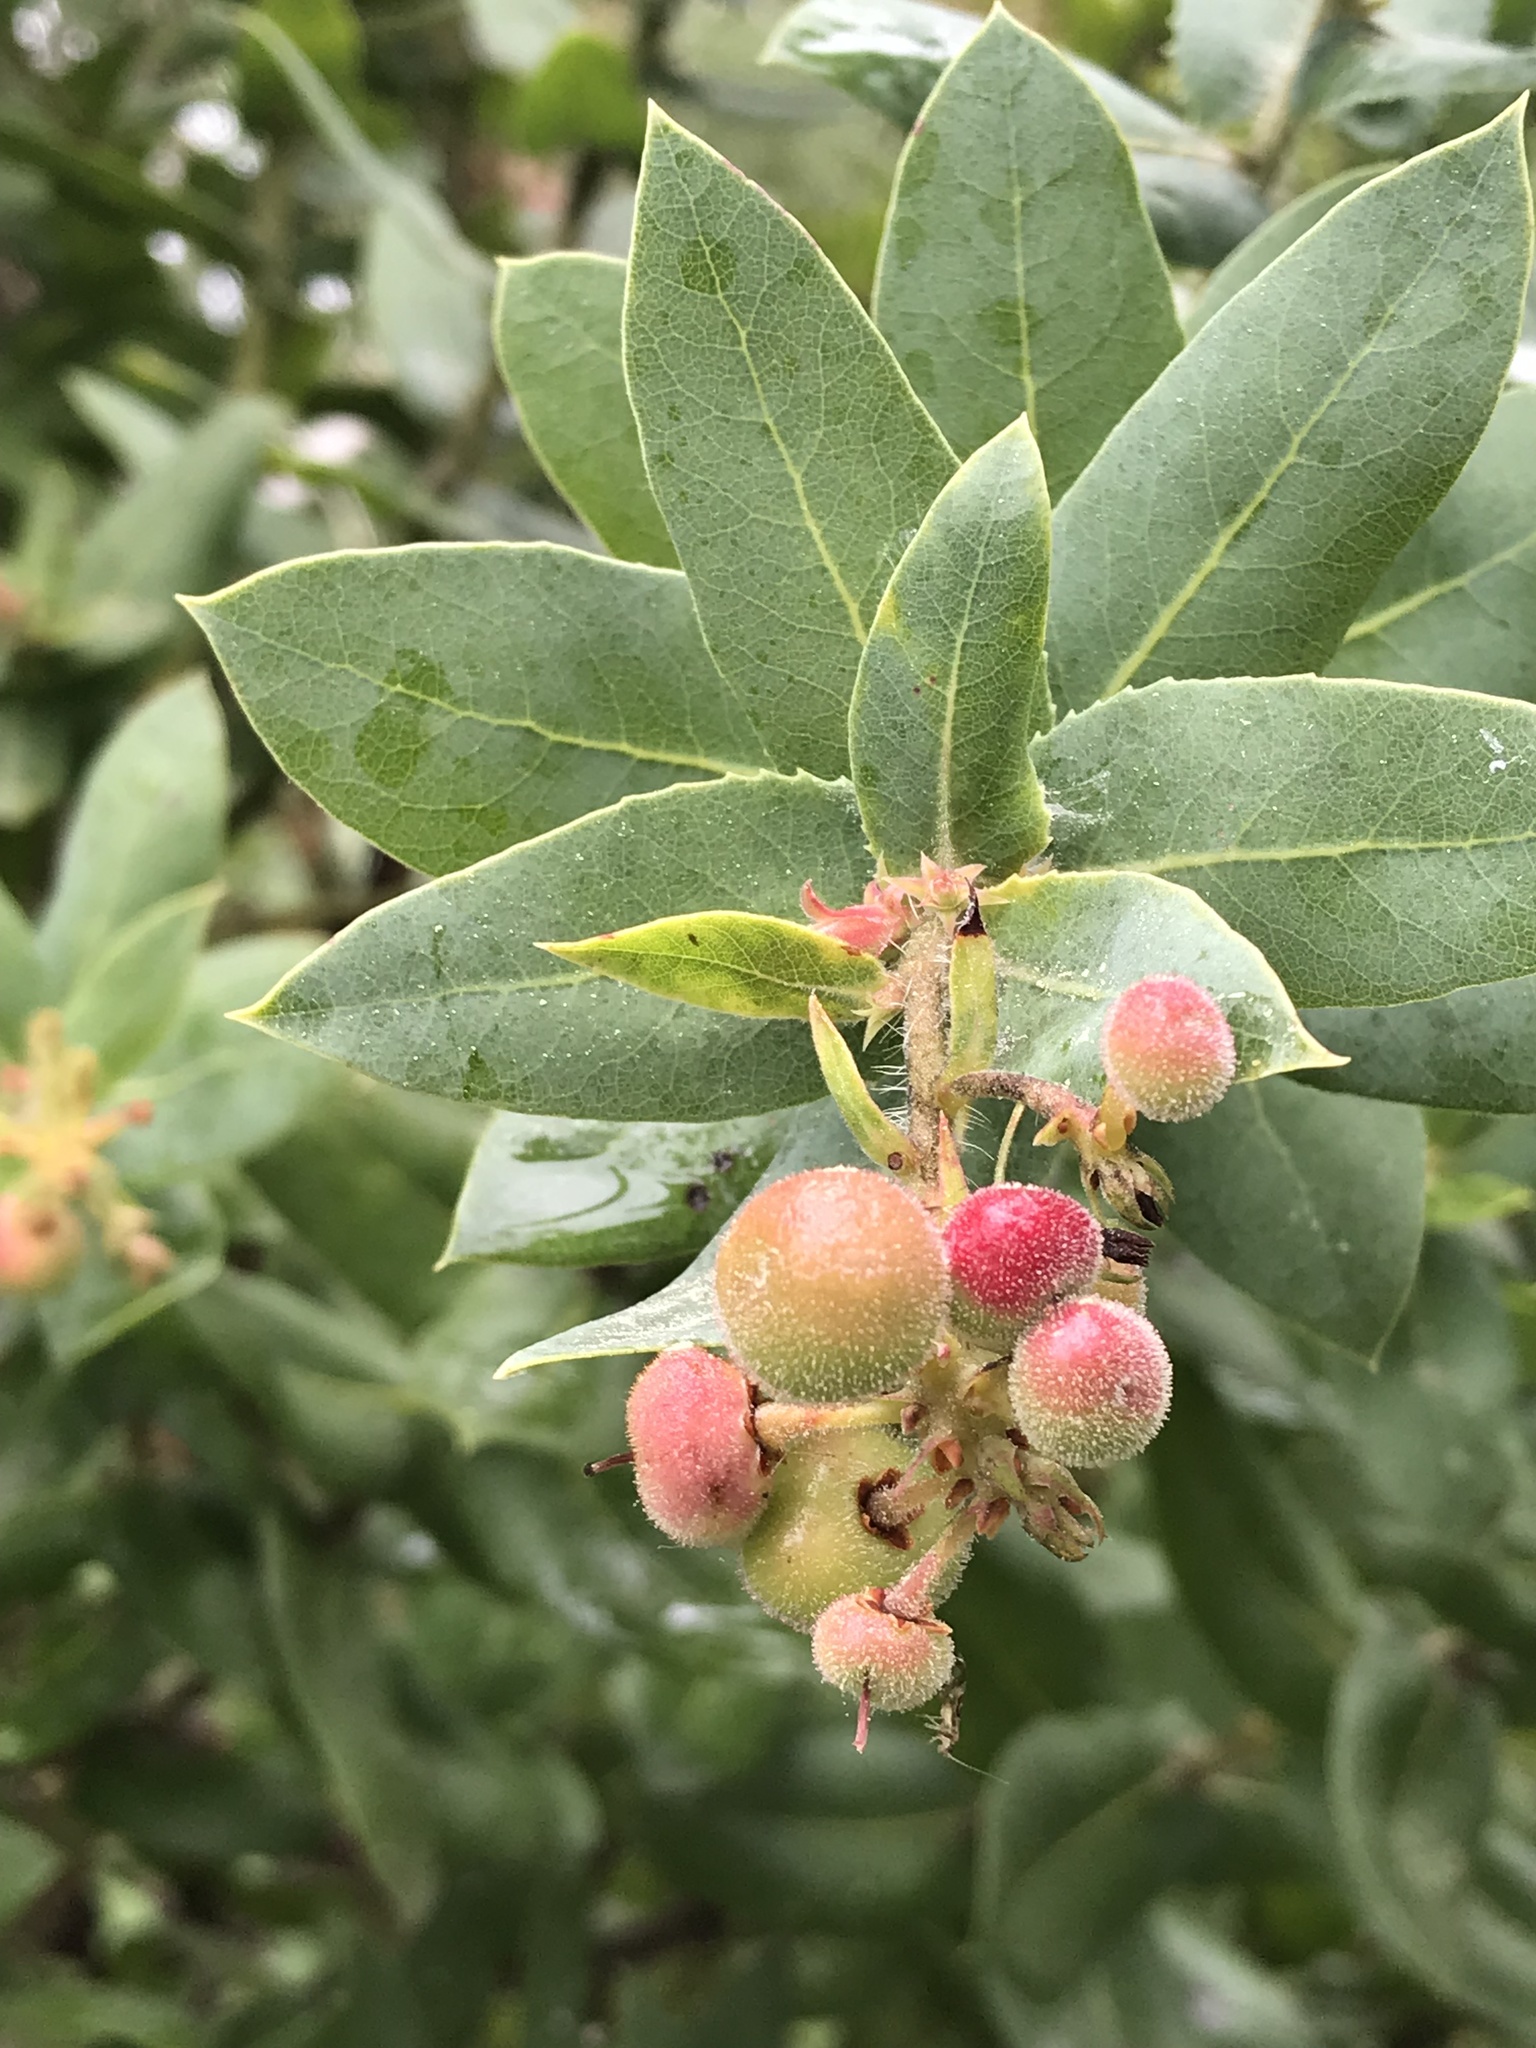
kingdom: Plantae
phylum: Tracheophyta
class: Magnoliopsida
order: Ericales
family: Ericaceae
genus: Arctostaphylos
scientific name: Arctostaphylos andersonii
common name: Santa cruz manzanita
